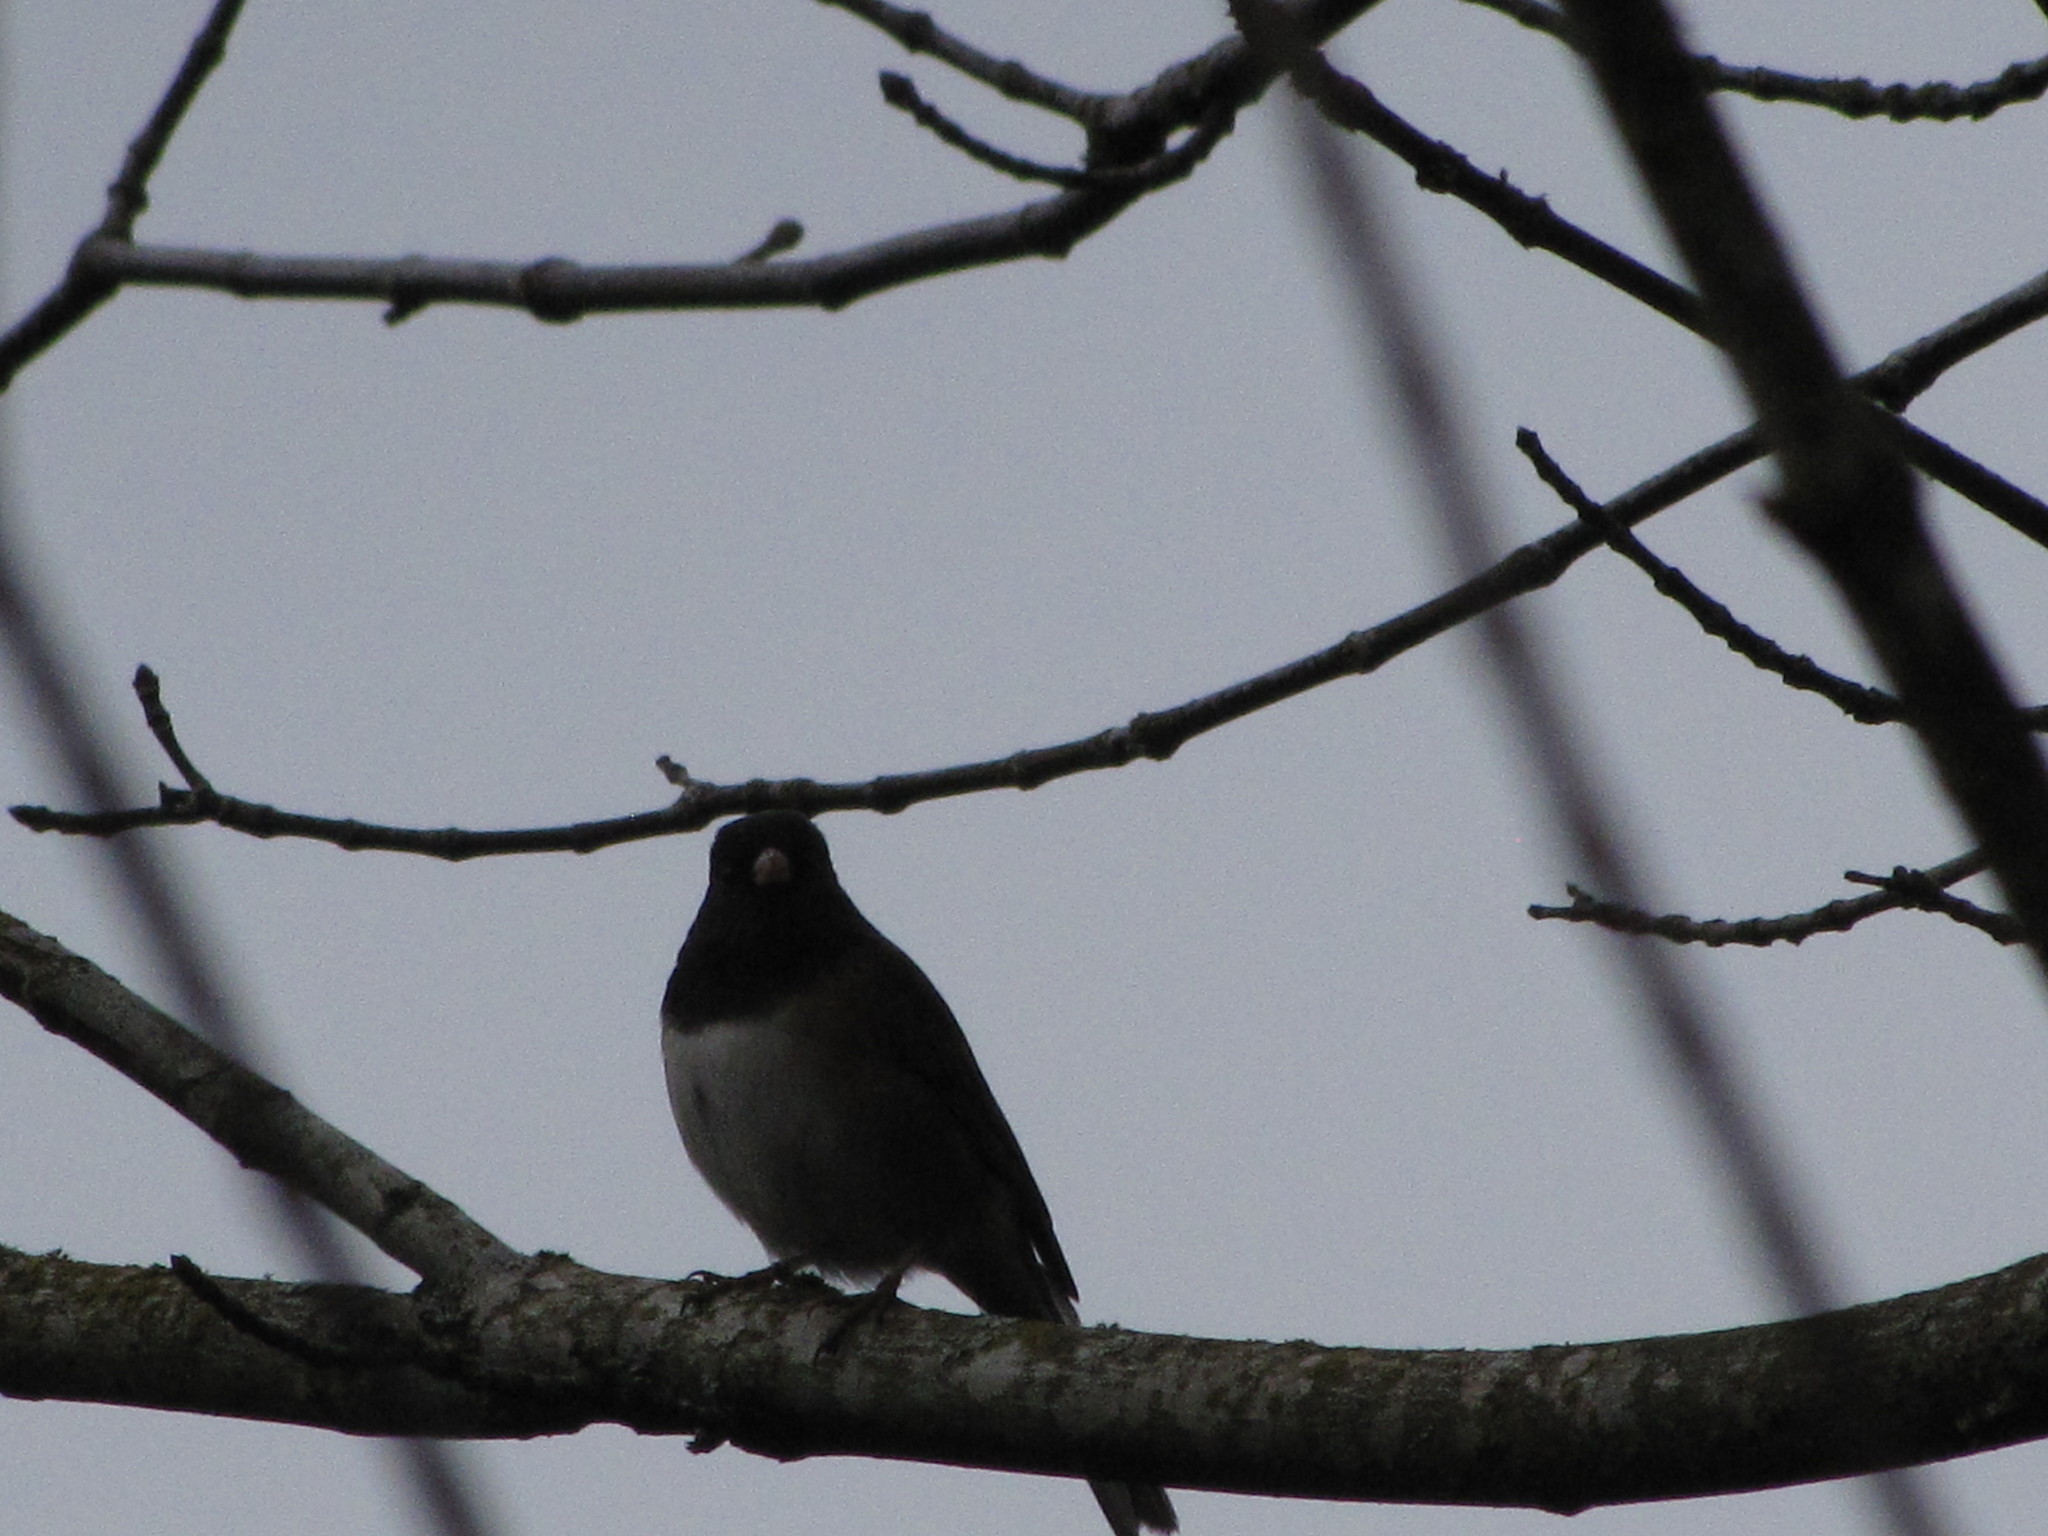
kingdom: Animalia
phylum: Chordata
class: Aves
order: Passeriformes
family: Passerellidae
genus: Junco
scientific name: Junco hyemalis
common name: Dark-eyed junco
